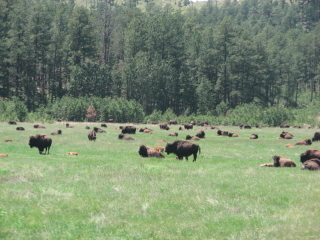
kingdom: Animalia
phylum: Chordata
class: Mammalia
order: Artiodactyla
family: Bovidae
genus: Bison
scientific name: Bison bison
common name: American bison
